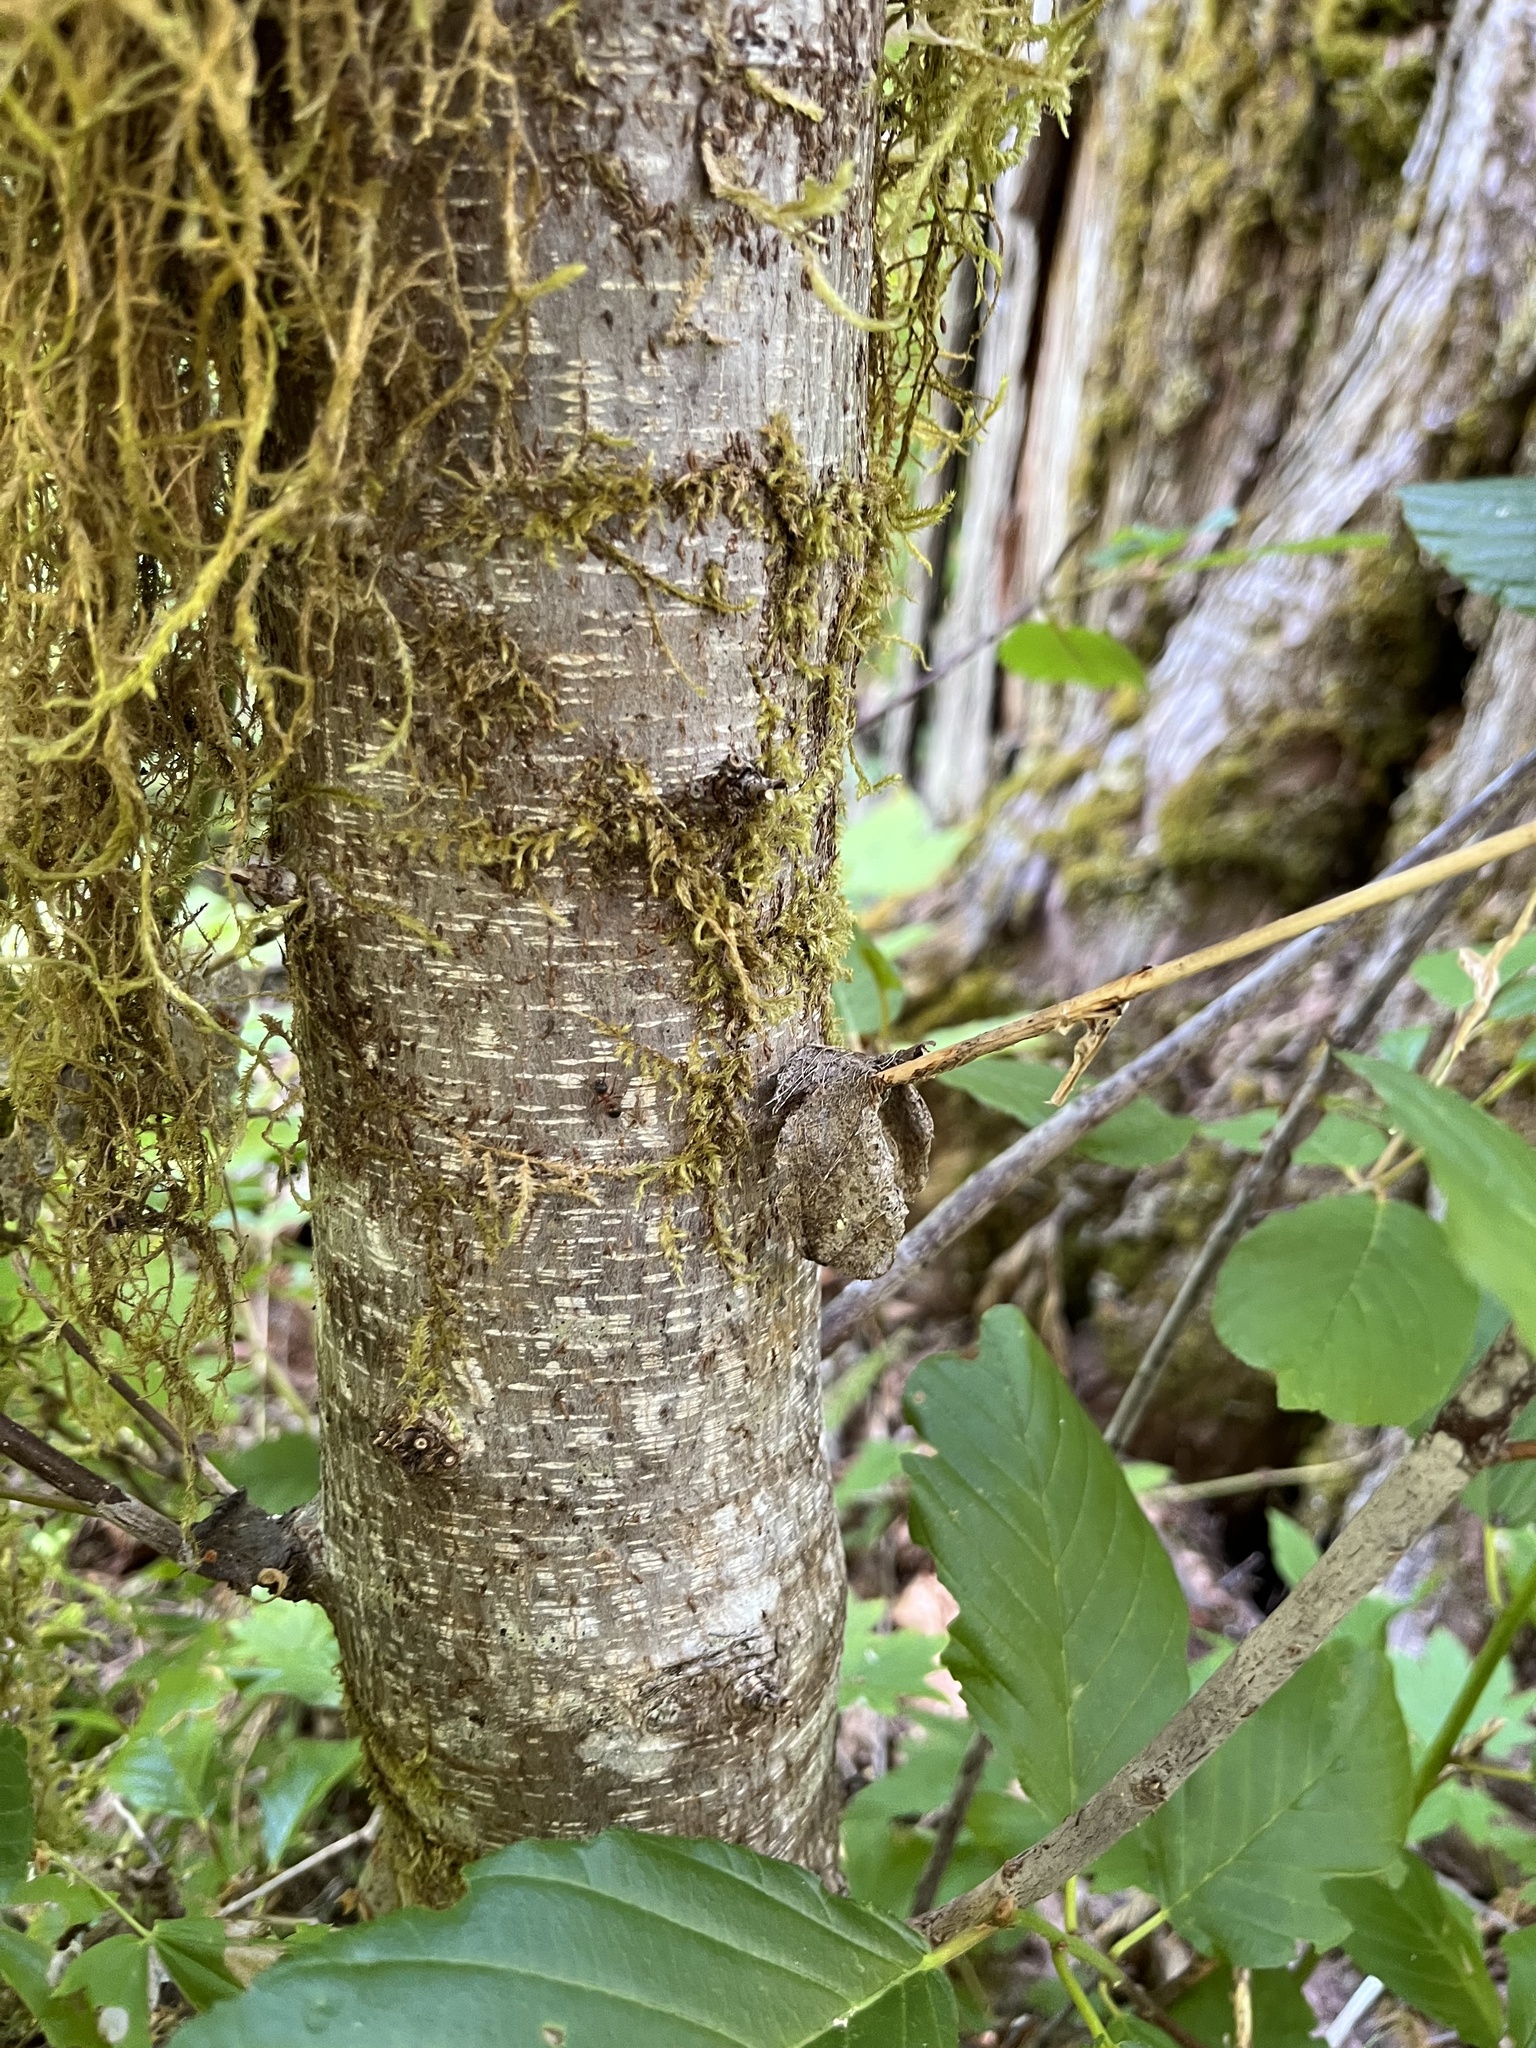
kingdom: Plantae
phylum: Tracheophyta
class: Magnoliopsida
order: Rosales
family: Rhamnaceae
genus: Frangula
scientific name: Frangula purshiana
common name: Cascara buckthorn
